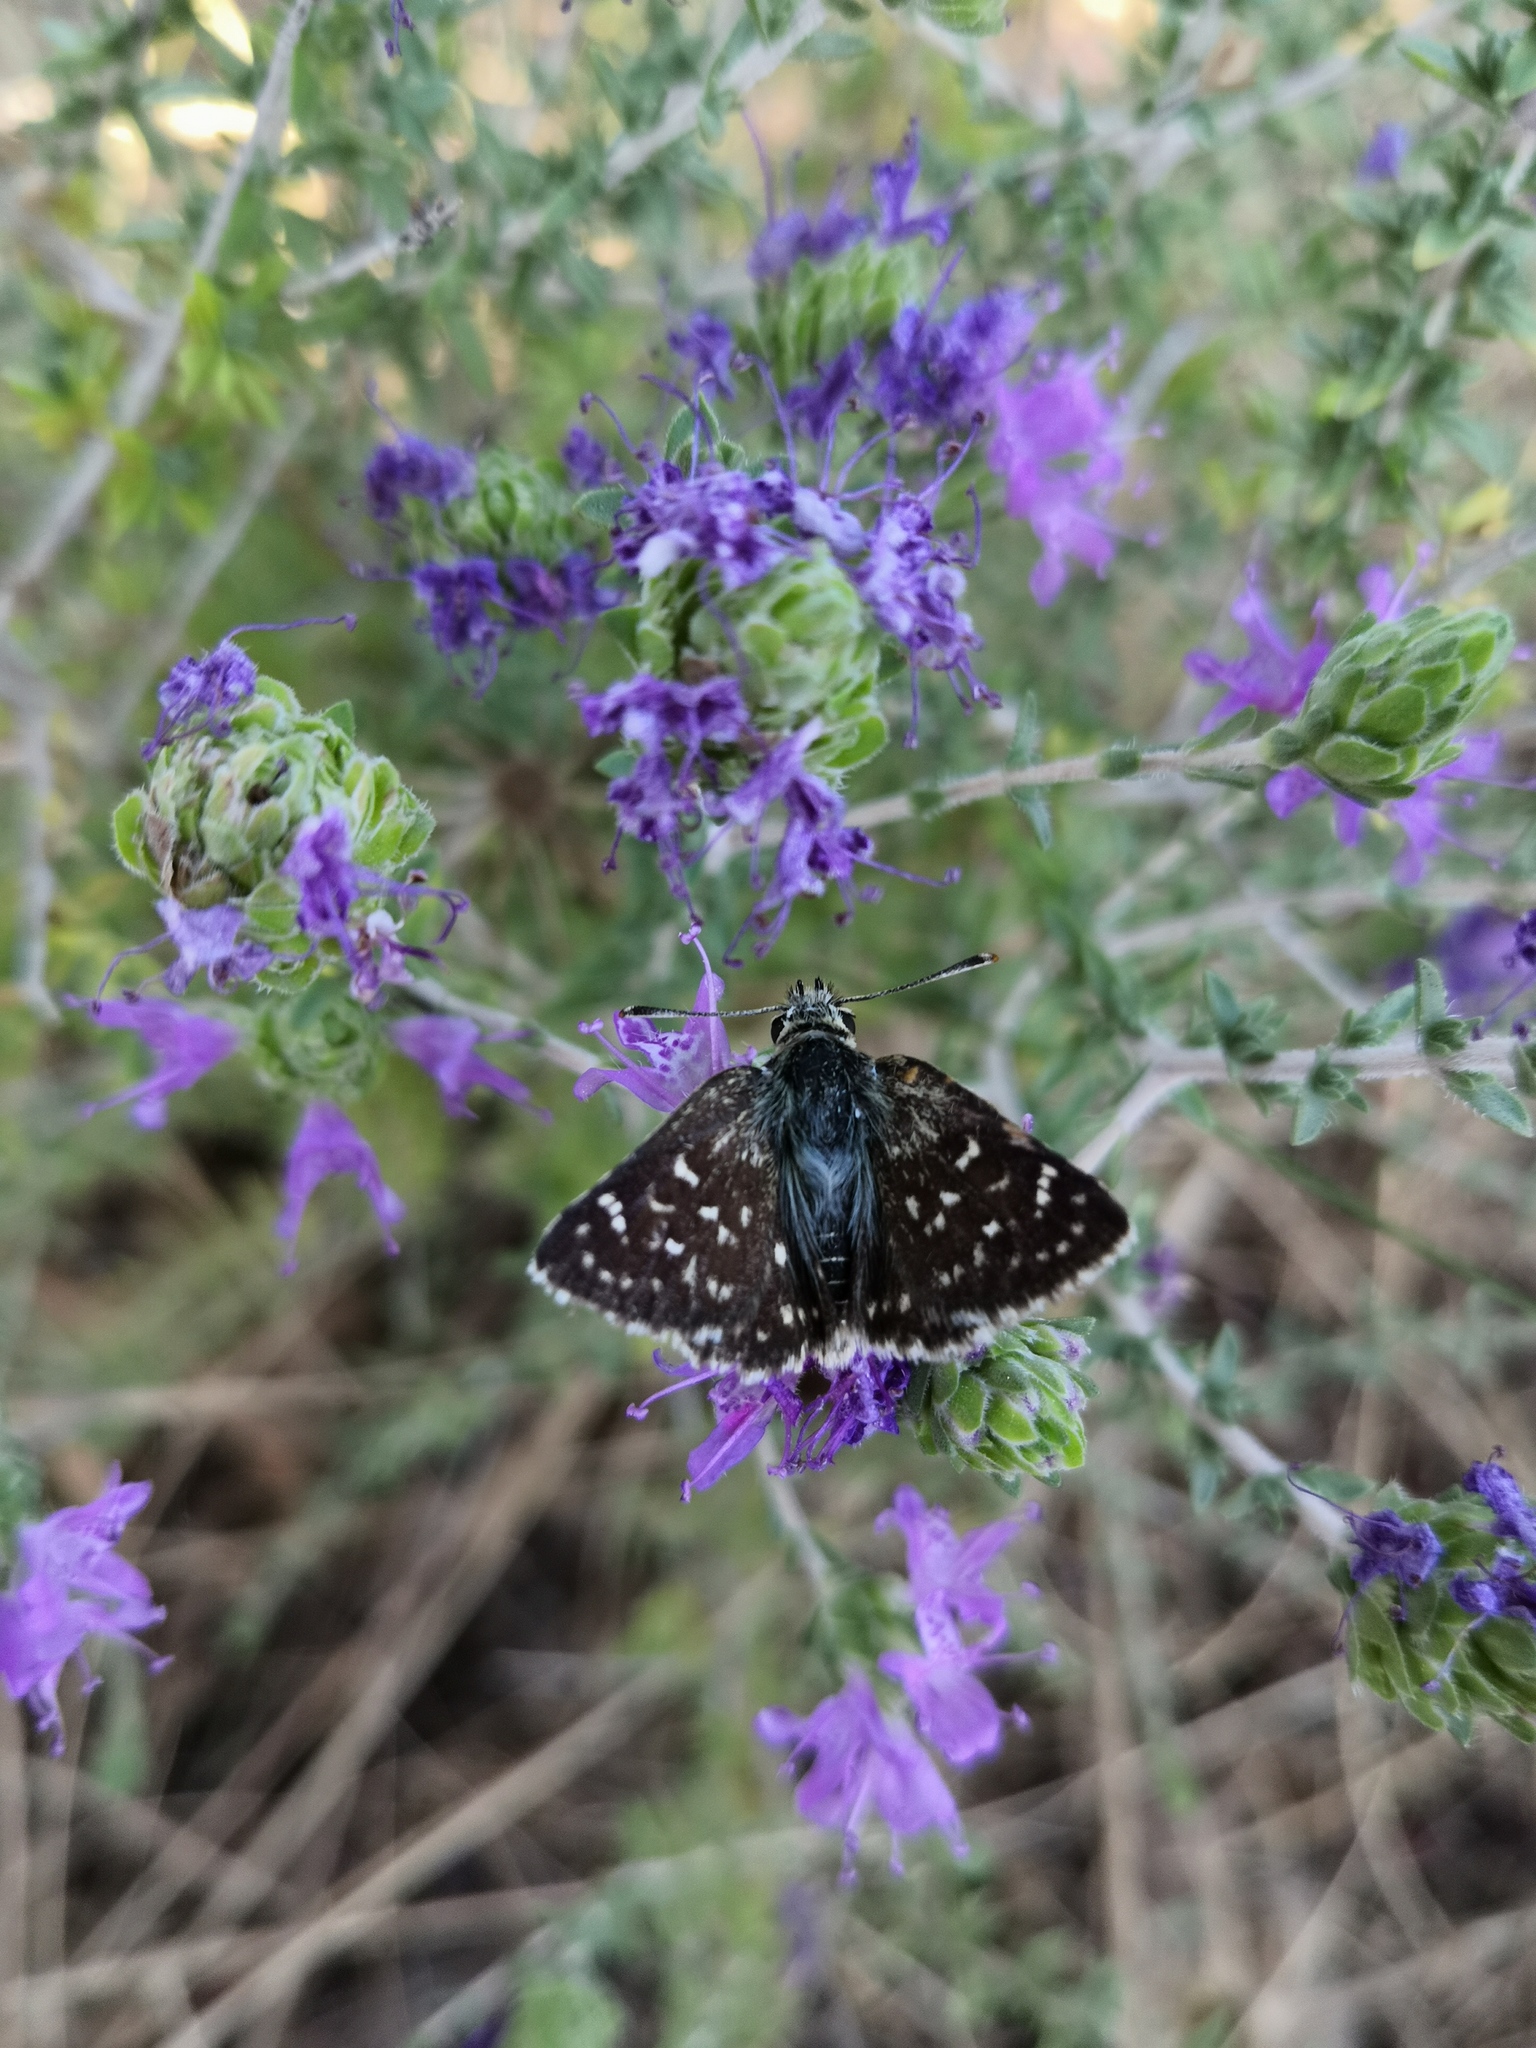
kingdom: Animalia
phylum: Arthropoda
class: Insecta
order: Lepidoptera
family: Hesperiidae
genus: Spialia
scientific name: Spialia sertorius
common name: Red underwing skipper
